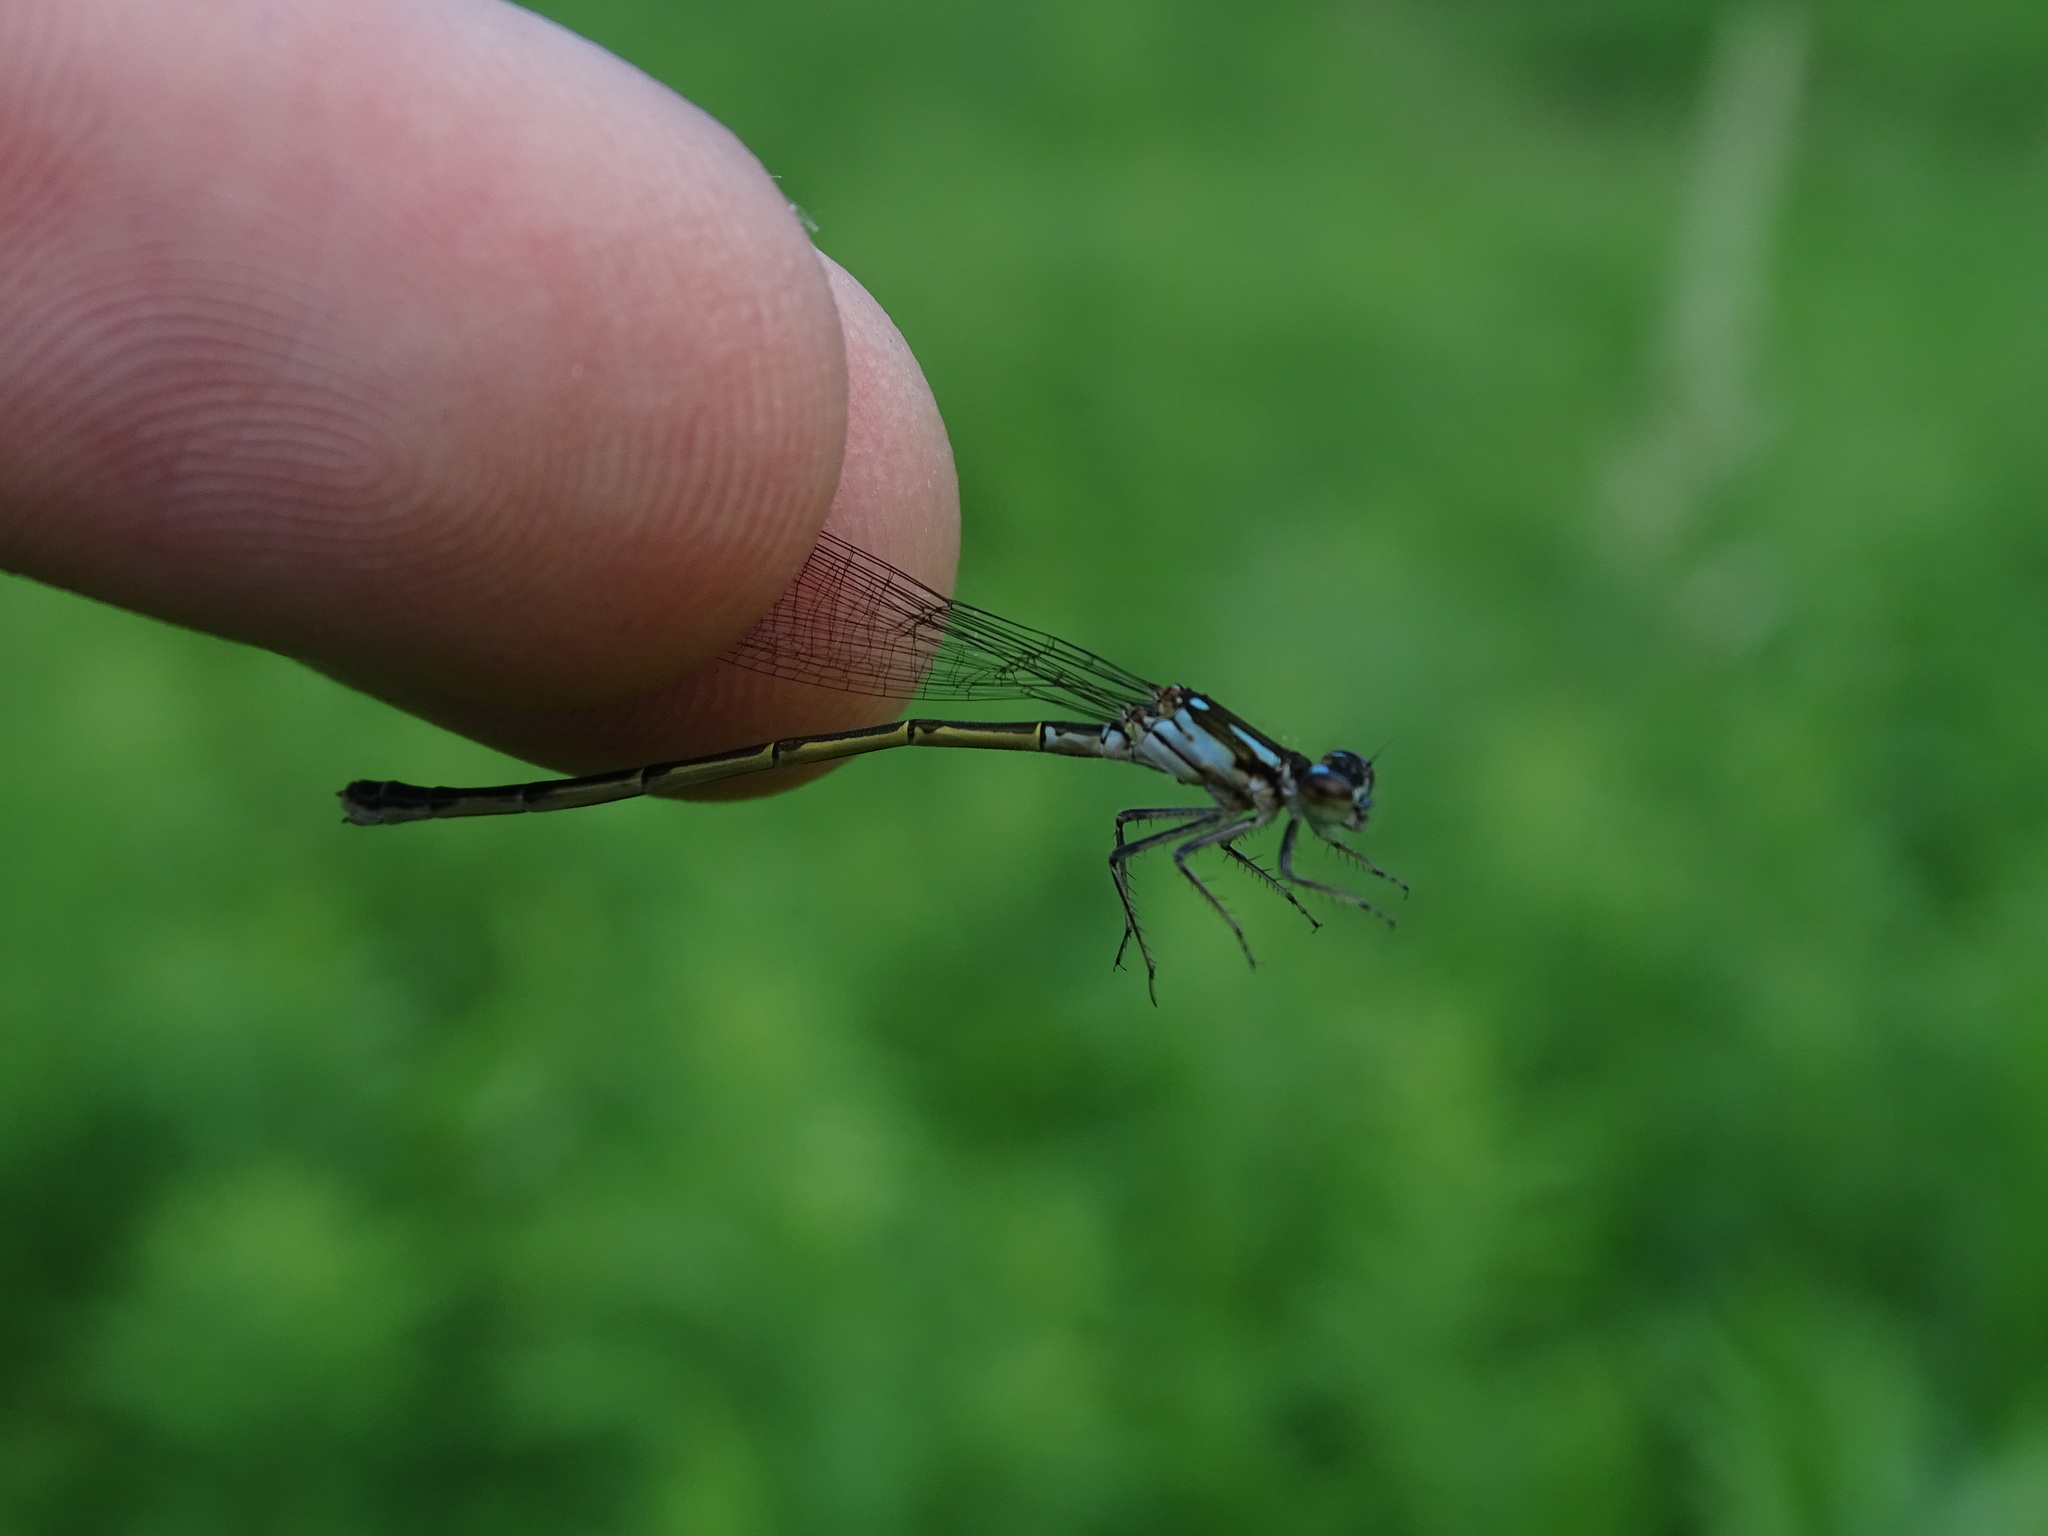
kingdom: Animalia
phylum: Arthropoda
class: Insecta
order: Odonata
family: Coenagrionidae
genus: Ischnura
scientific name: Ischnura posita
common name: Fragile forktail
